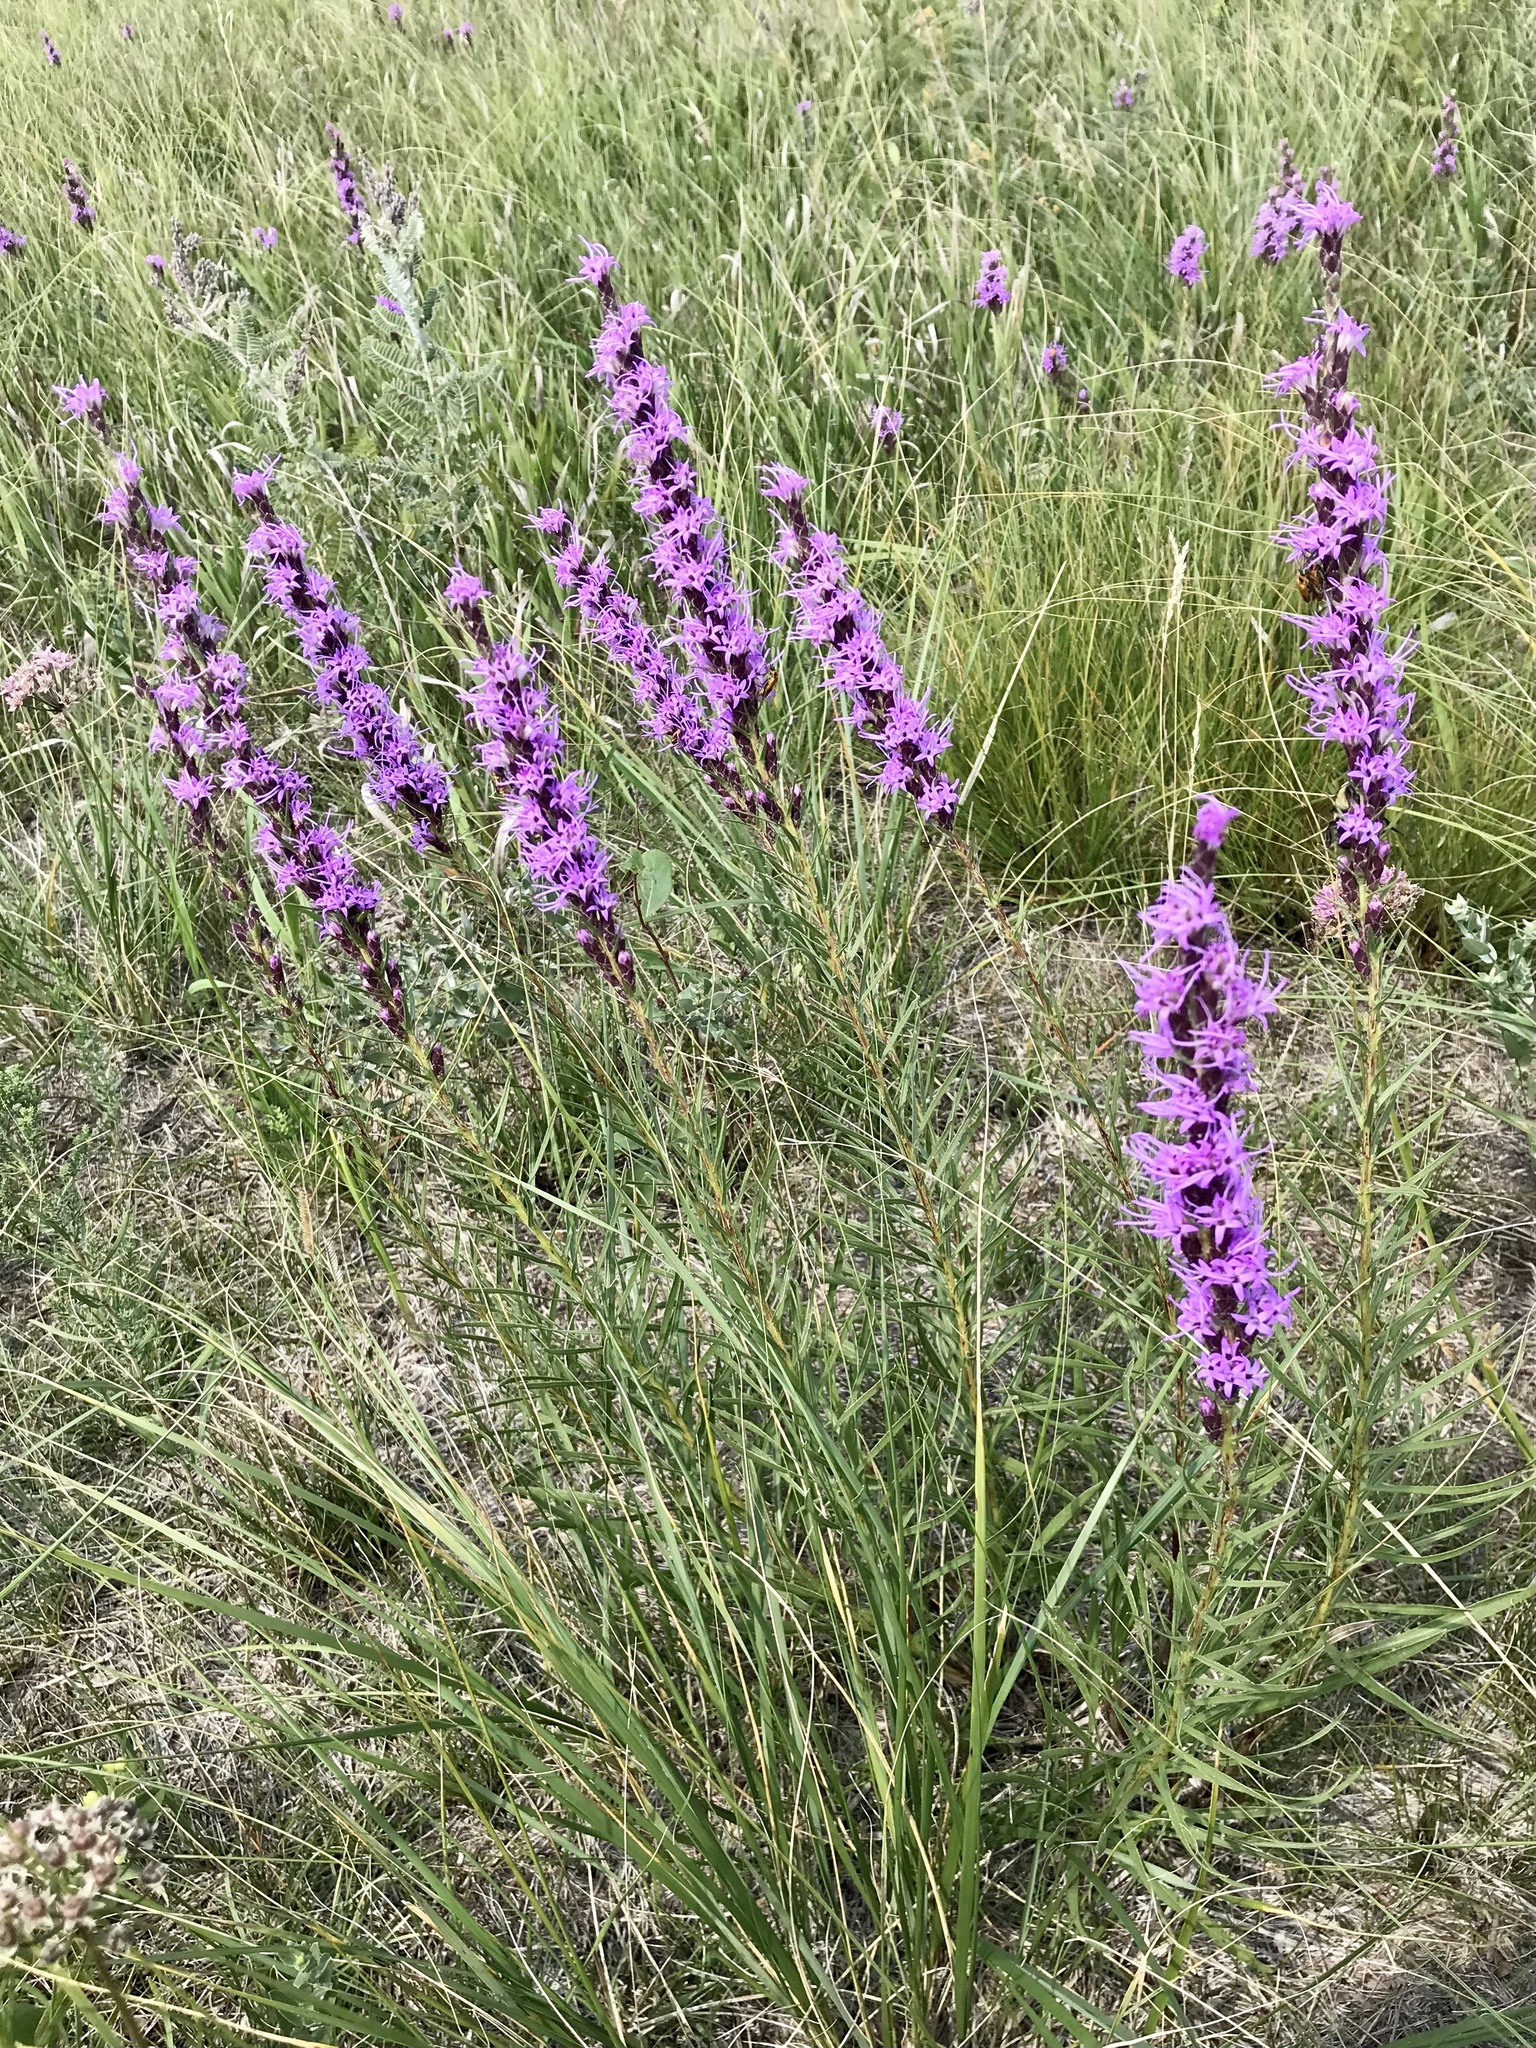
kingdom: Plantae
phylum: Tracheophyta
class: Magnoliopsida
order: Asterales
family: Asteraceae
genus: Liatris
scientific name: Liatris punctata
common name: Dotted gayfeather
